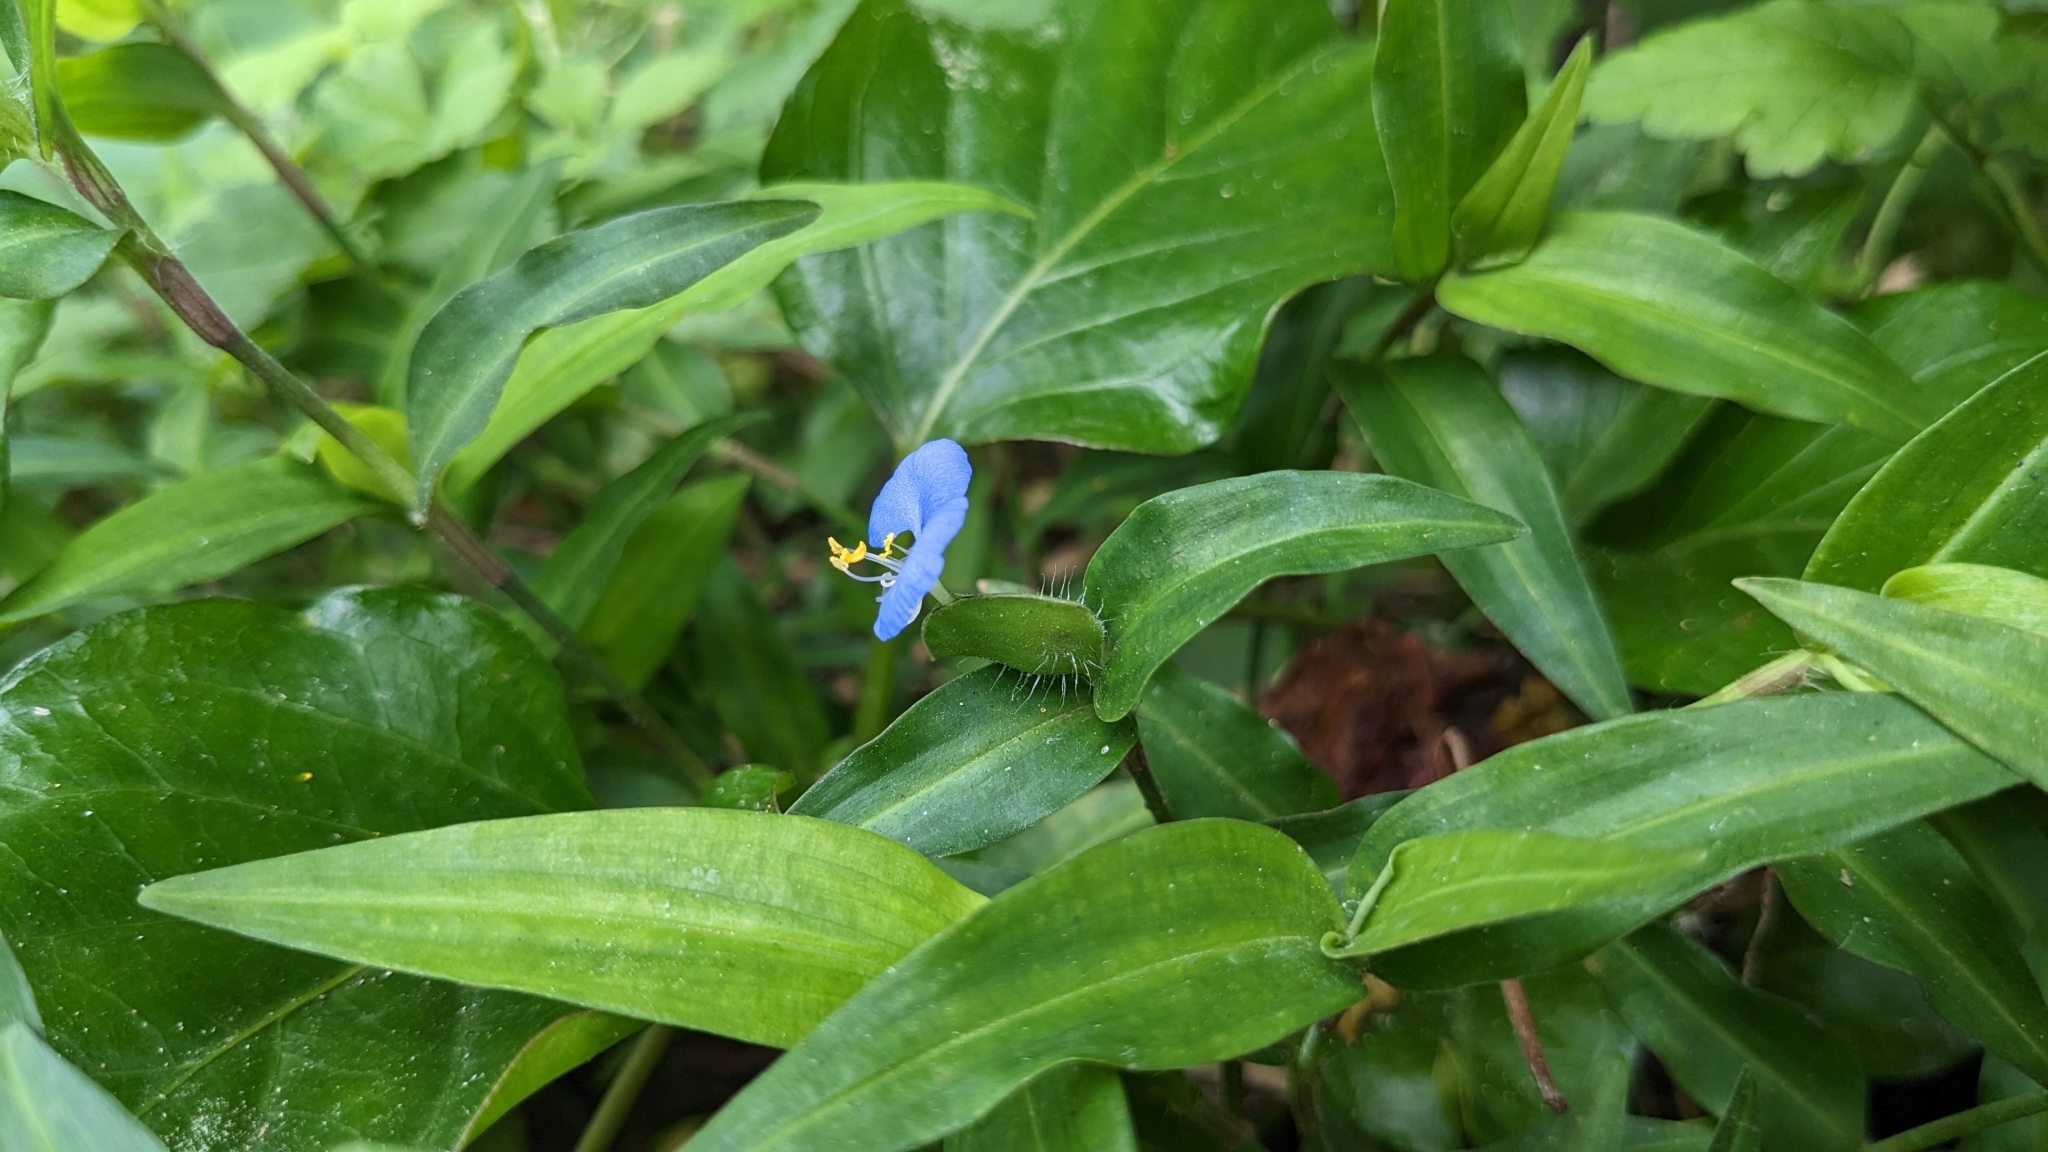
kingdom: Plantae
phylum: Tracheophyta
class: Liliopsida
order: Commelinales
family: Commelinaceae
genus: Commelina
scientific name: Commelina auriculata
